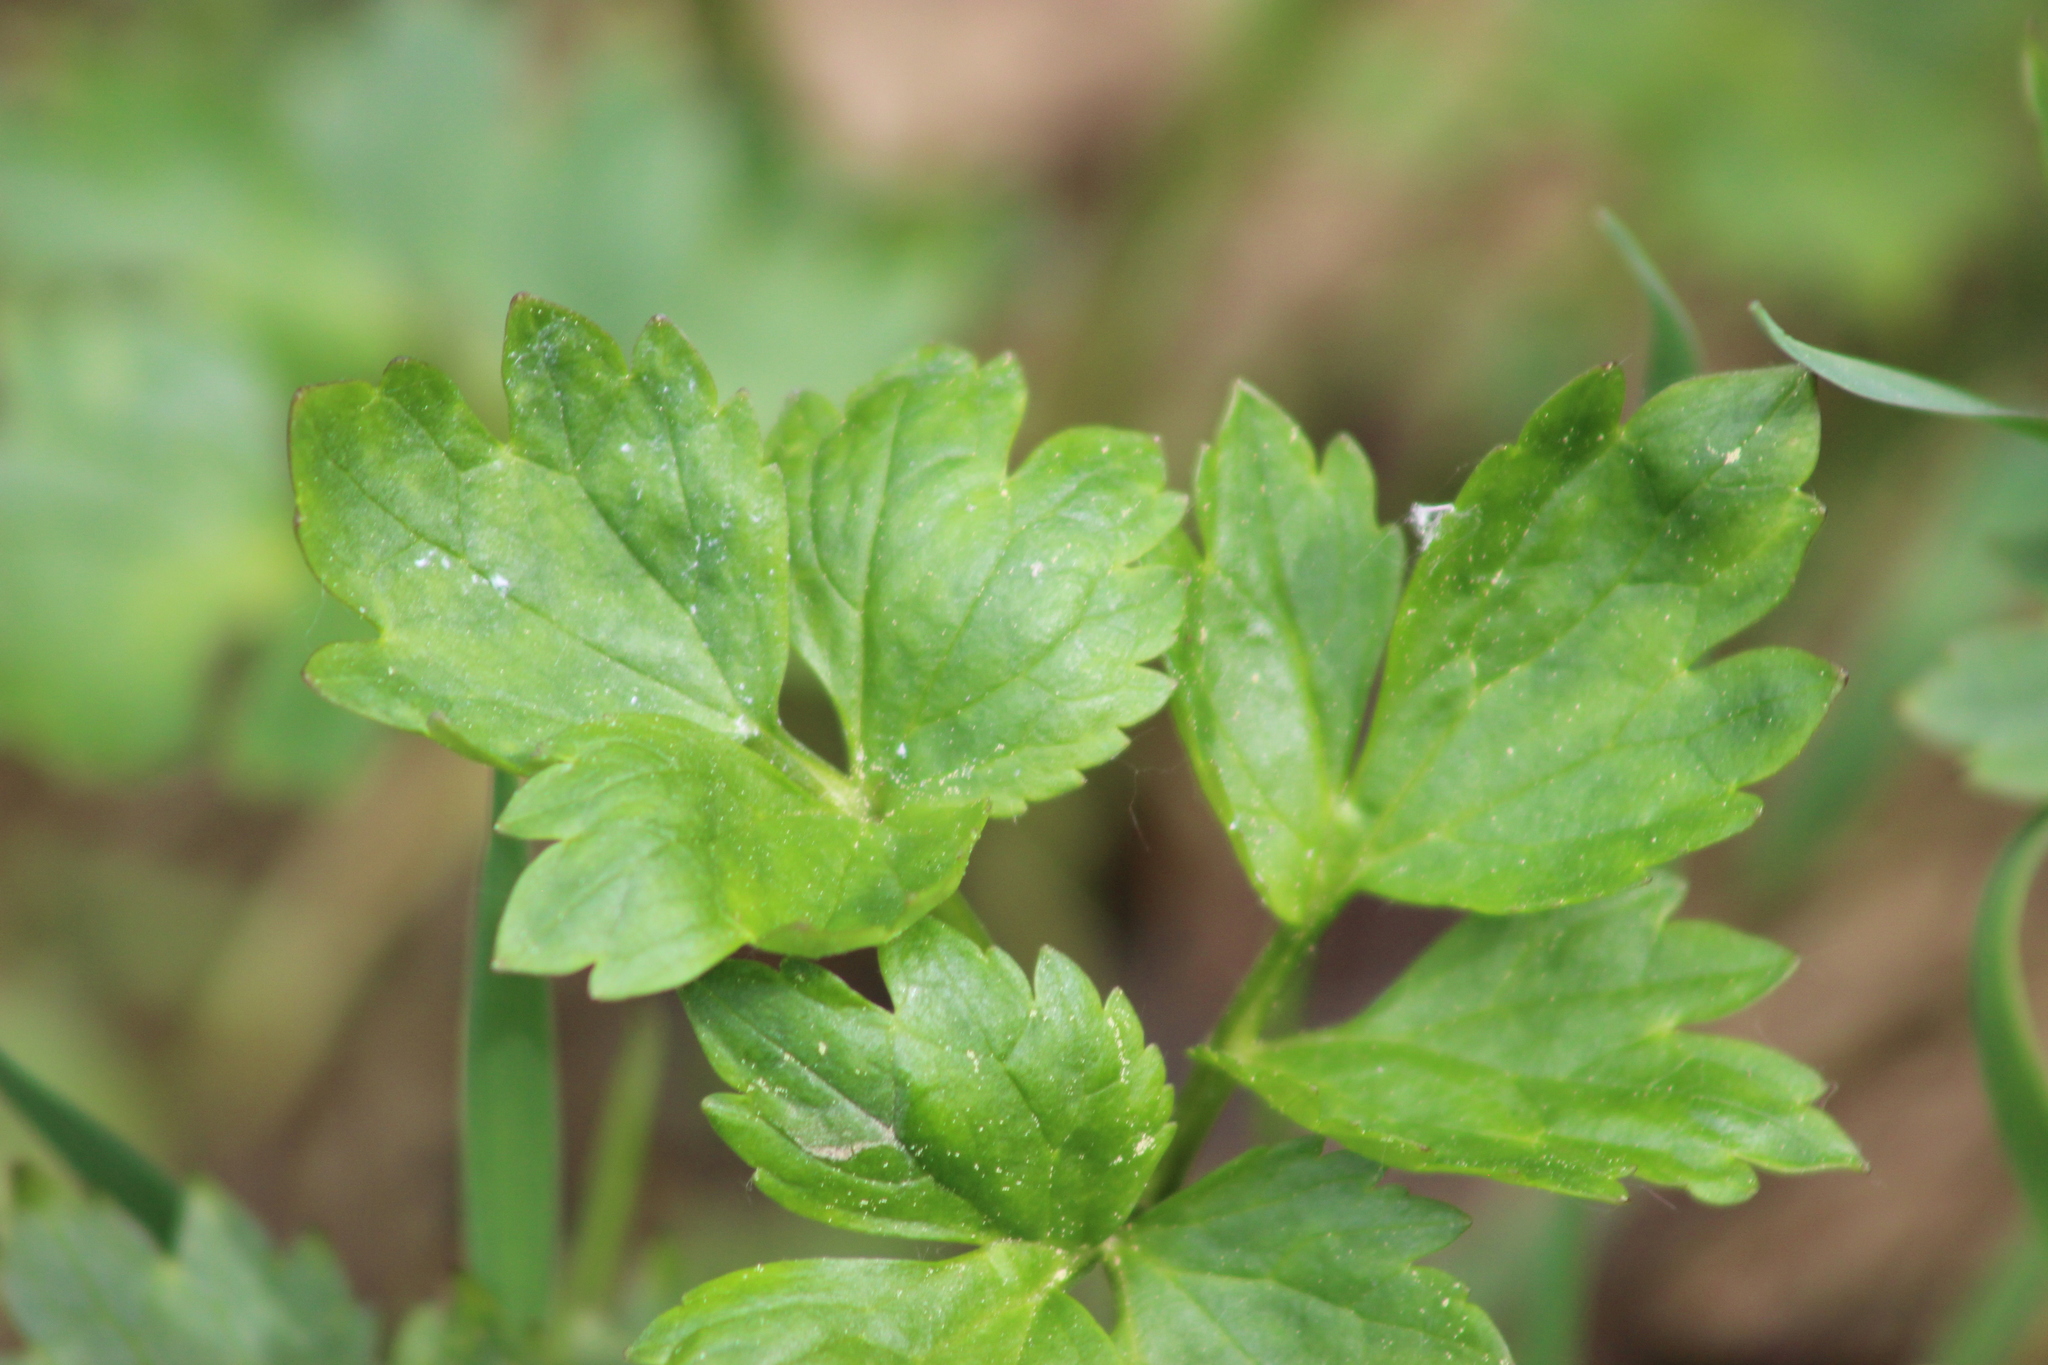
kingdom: Plantae
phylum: Tracheophyta
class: Magnoliopsida
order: Ranunculales
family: Ranunculaceae
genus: Ranunculus
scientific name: Ranunculus repens
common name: Creeping buttercup
